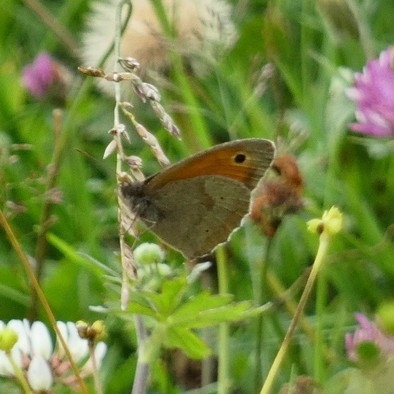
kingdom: Animalia
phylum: Arthropoda
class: Insecta
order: Lepidoptera
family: Nymphalidae
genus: Maniola
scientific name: Maniola jurtina
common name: Meadow brown
